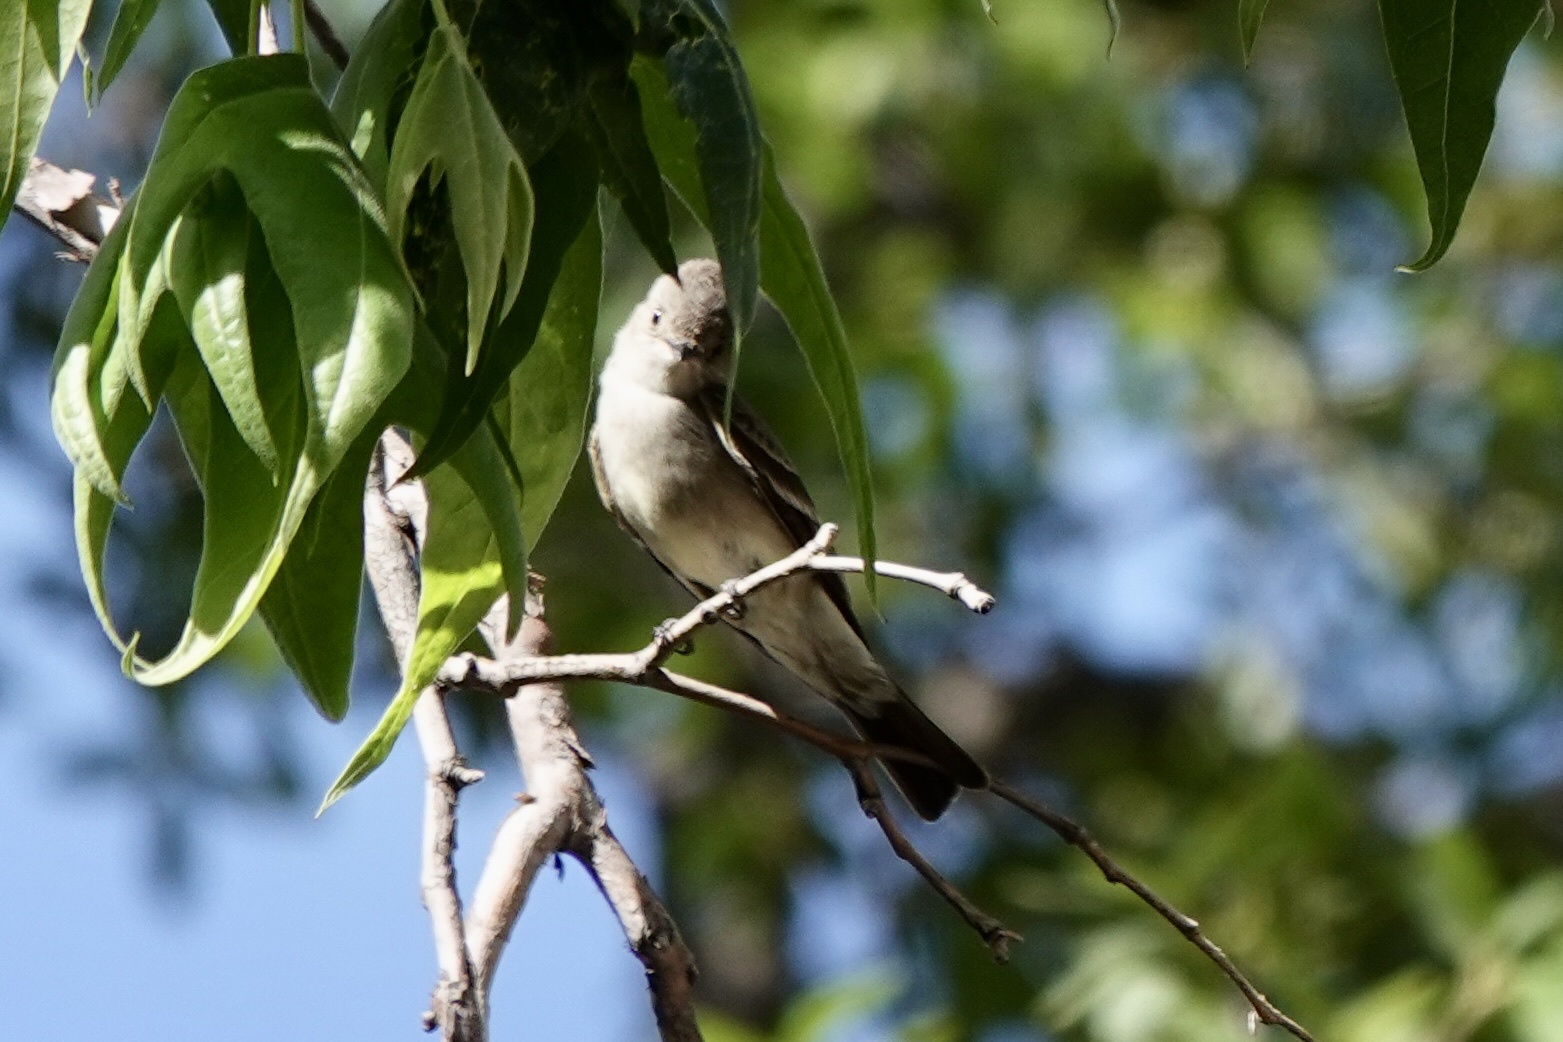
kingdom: Animalia
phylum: Chordata
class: Aves
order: Passeriformes
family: Tyrannidae
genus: Contopus
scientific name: Contopus sordidulus
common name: Western wood-pewee
